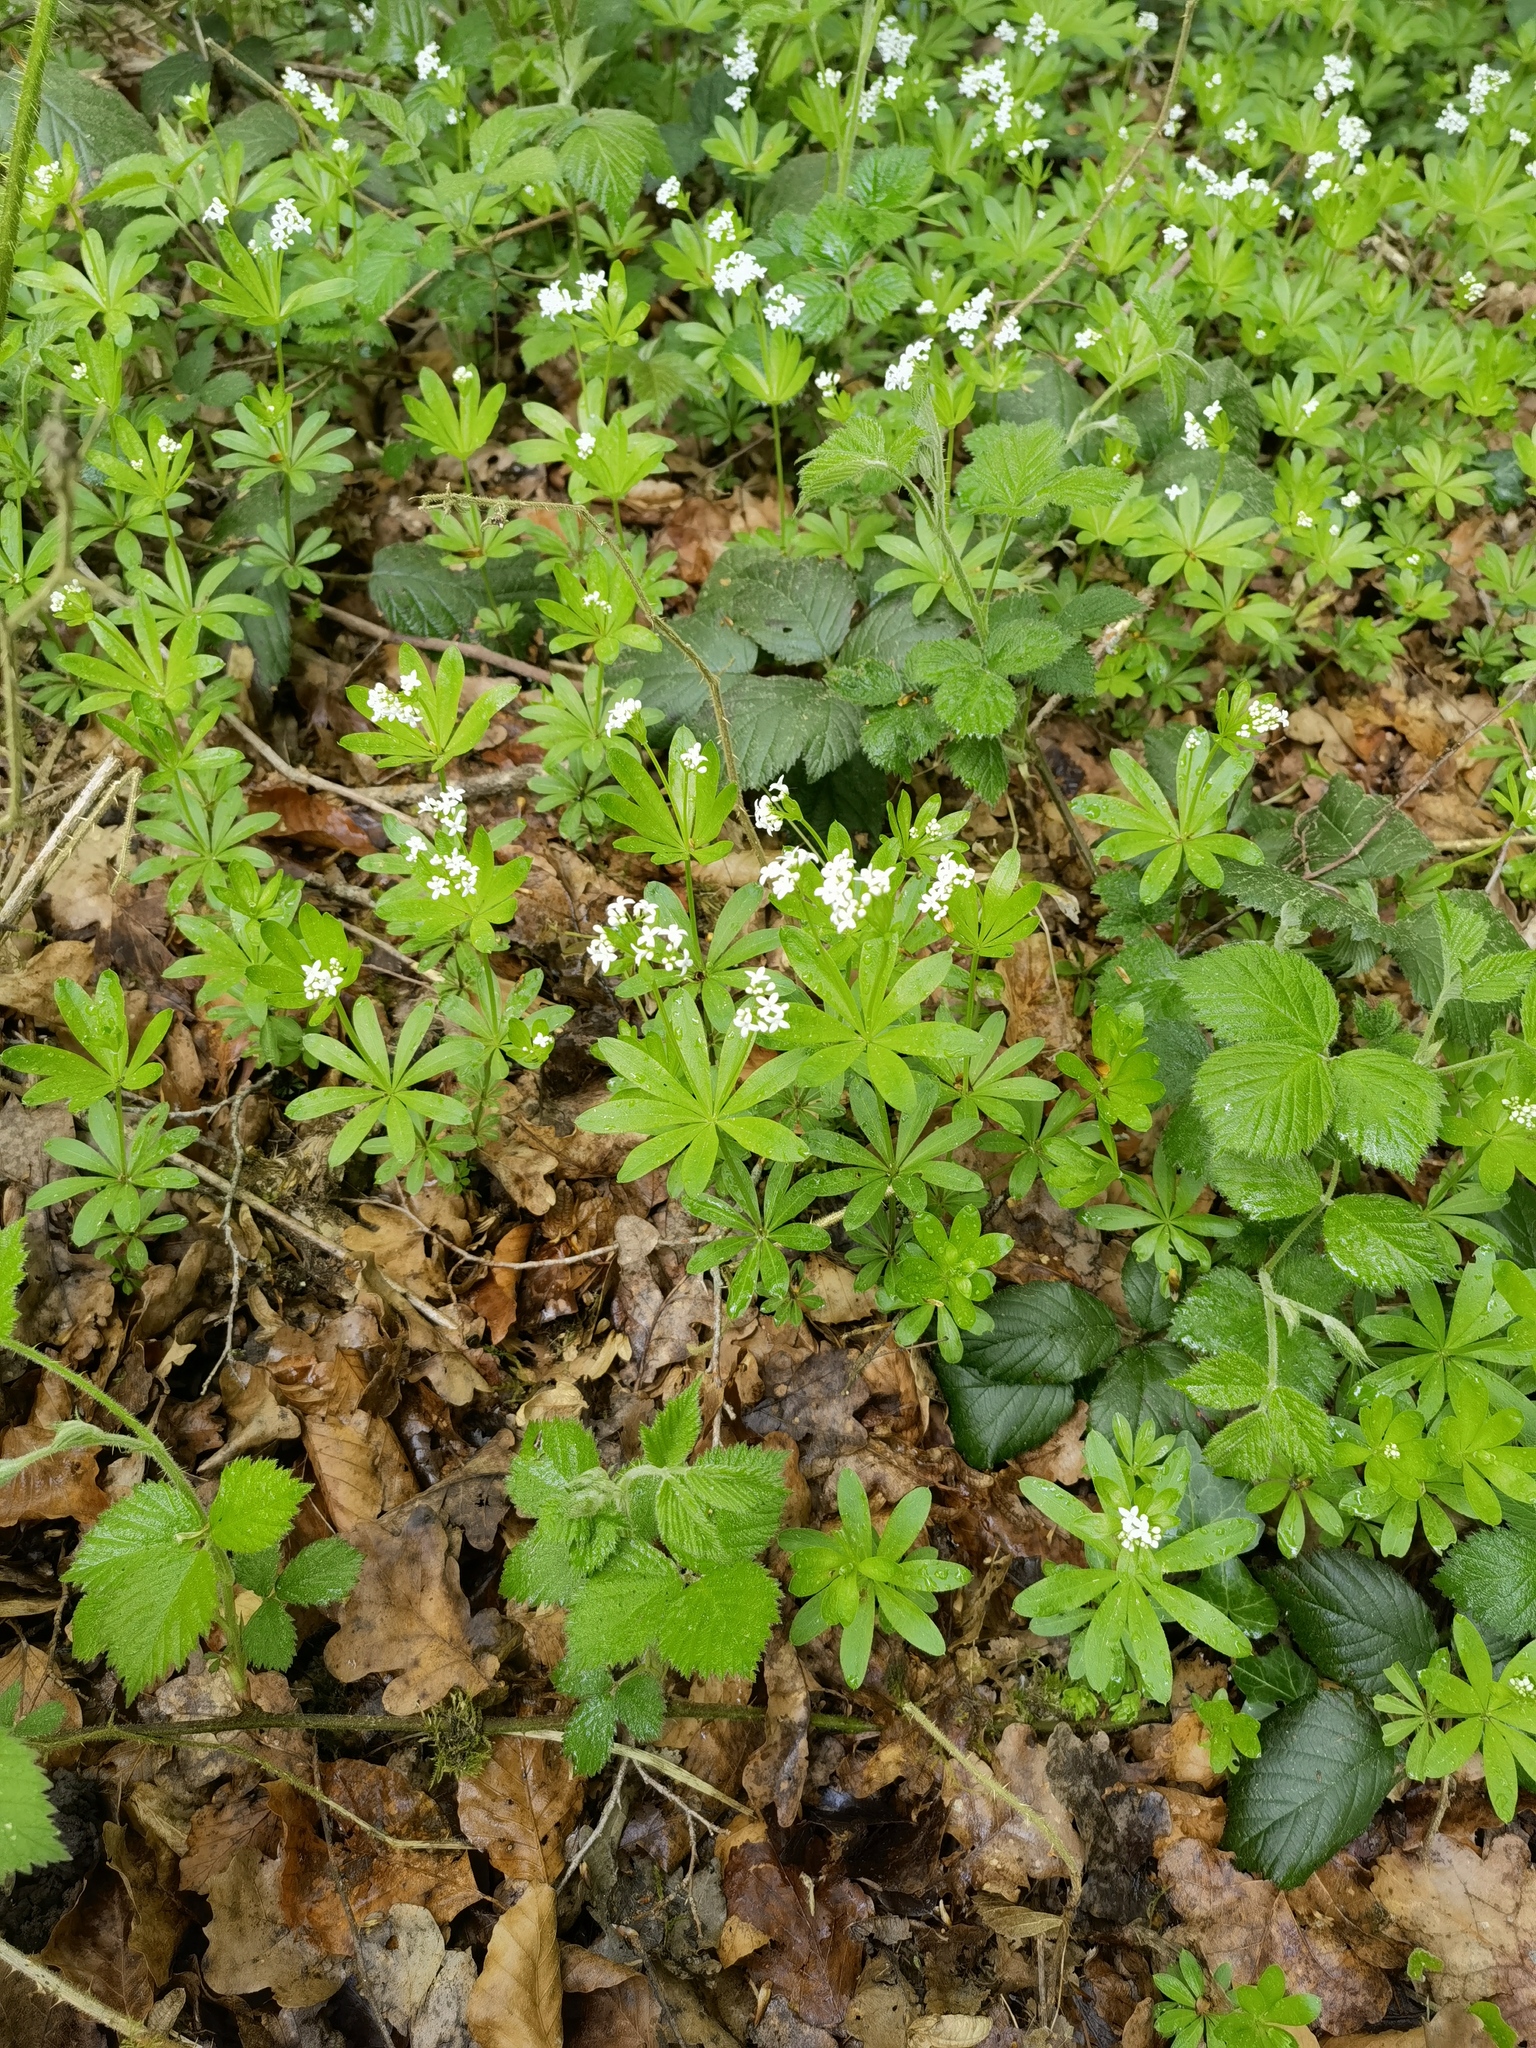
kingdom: Plantae
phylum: Tracheophyta
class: Magnoliopsida
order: Gentianales
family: Rubiaceae
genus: Galium
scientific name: Galium odoratum
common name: Sweet woodruff
